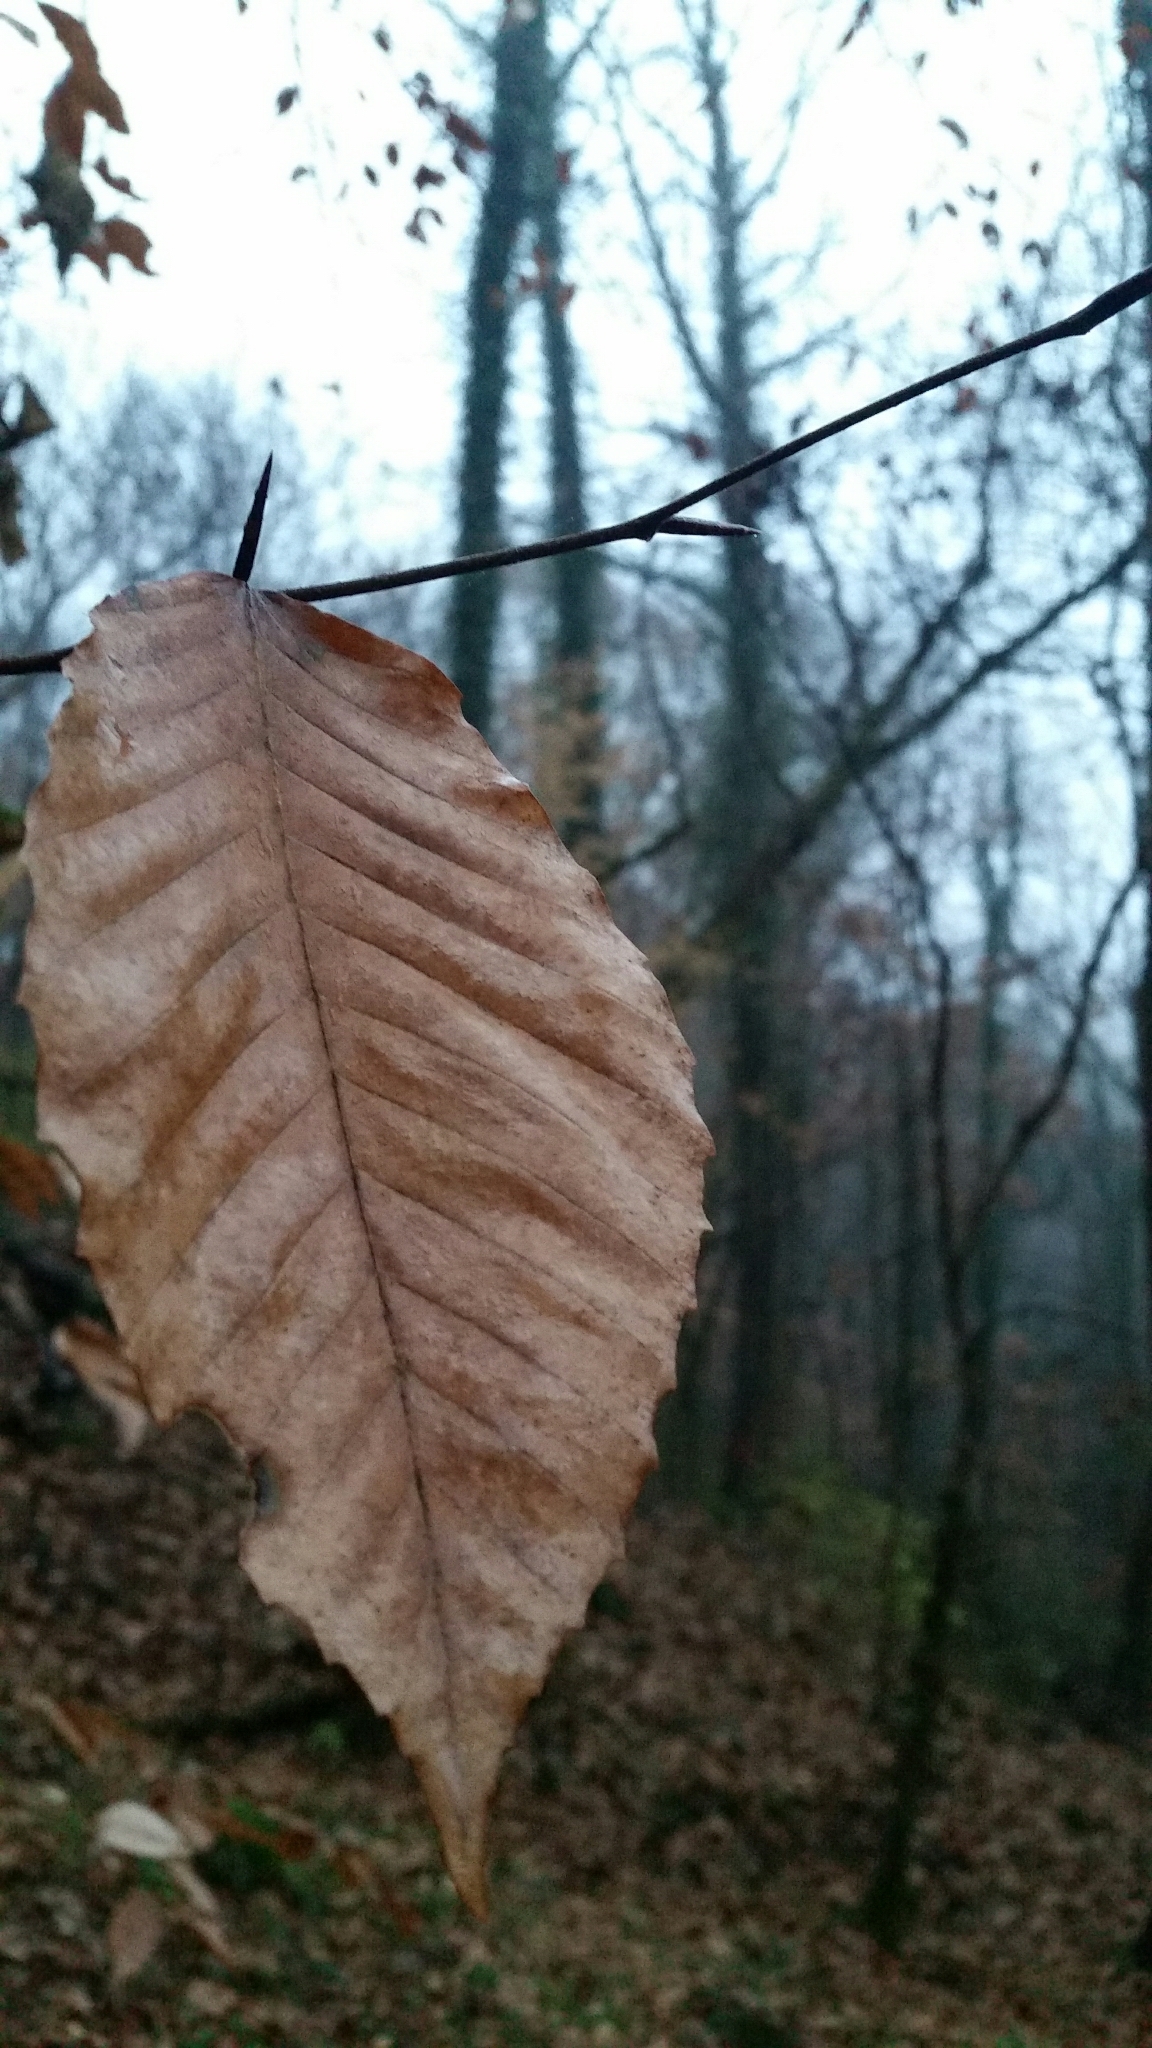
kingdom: Plantae
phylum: Tracheophyta
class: Magnoliopsida
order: Fagales
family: Fagaceae
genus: Fagus
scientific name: Fagus grandifolia
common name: American beech
